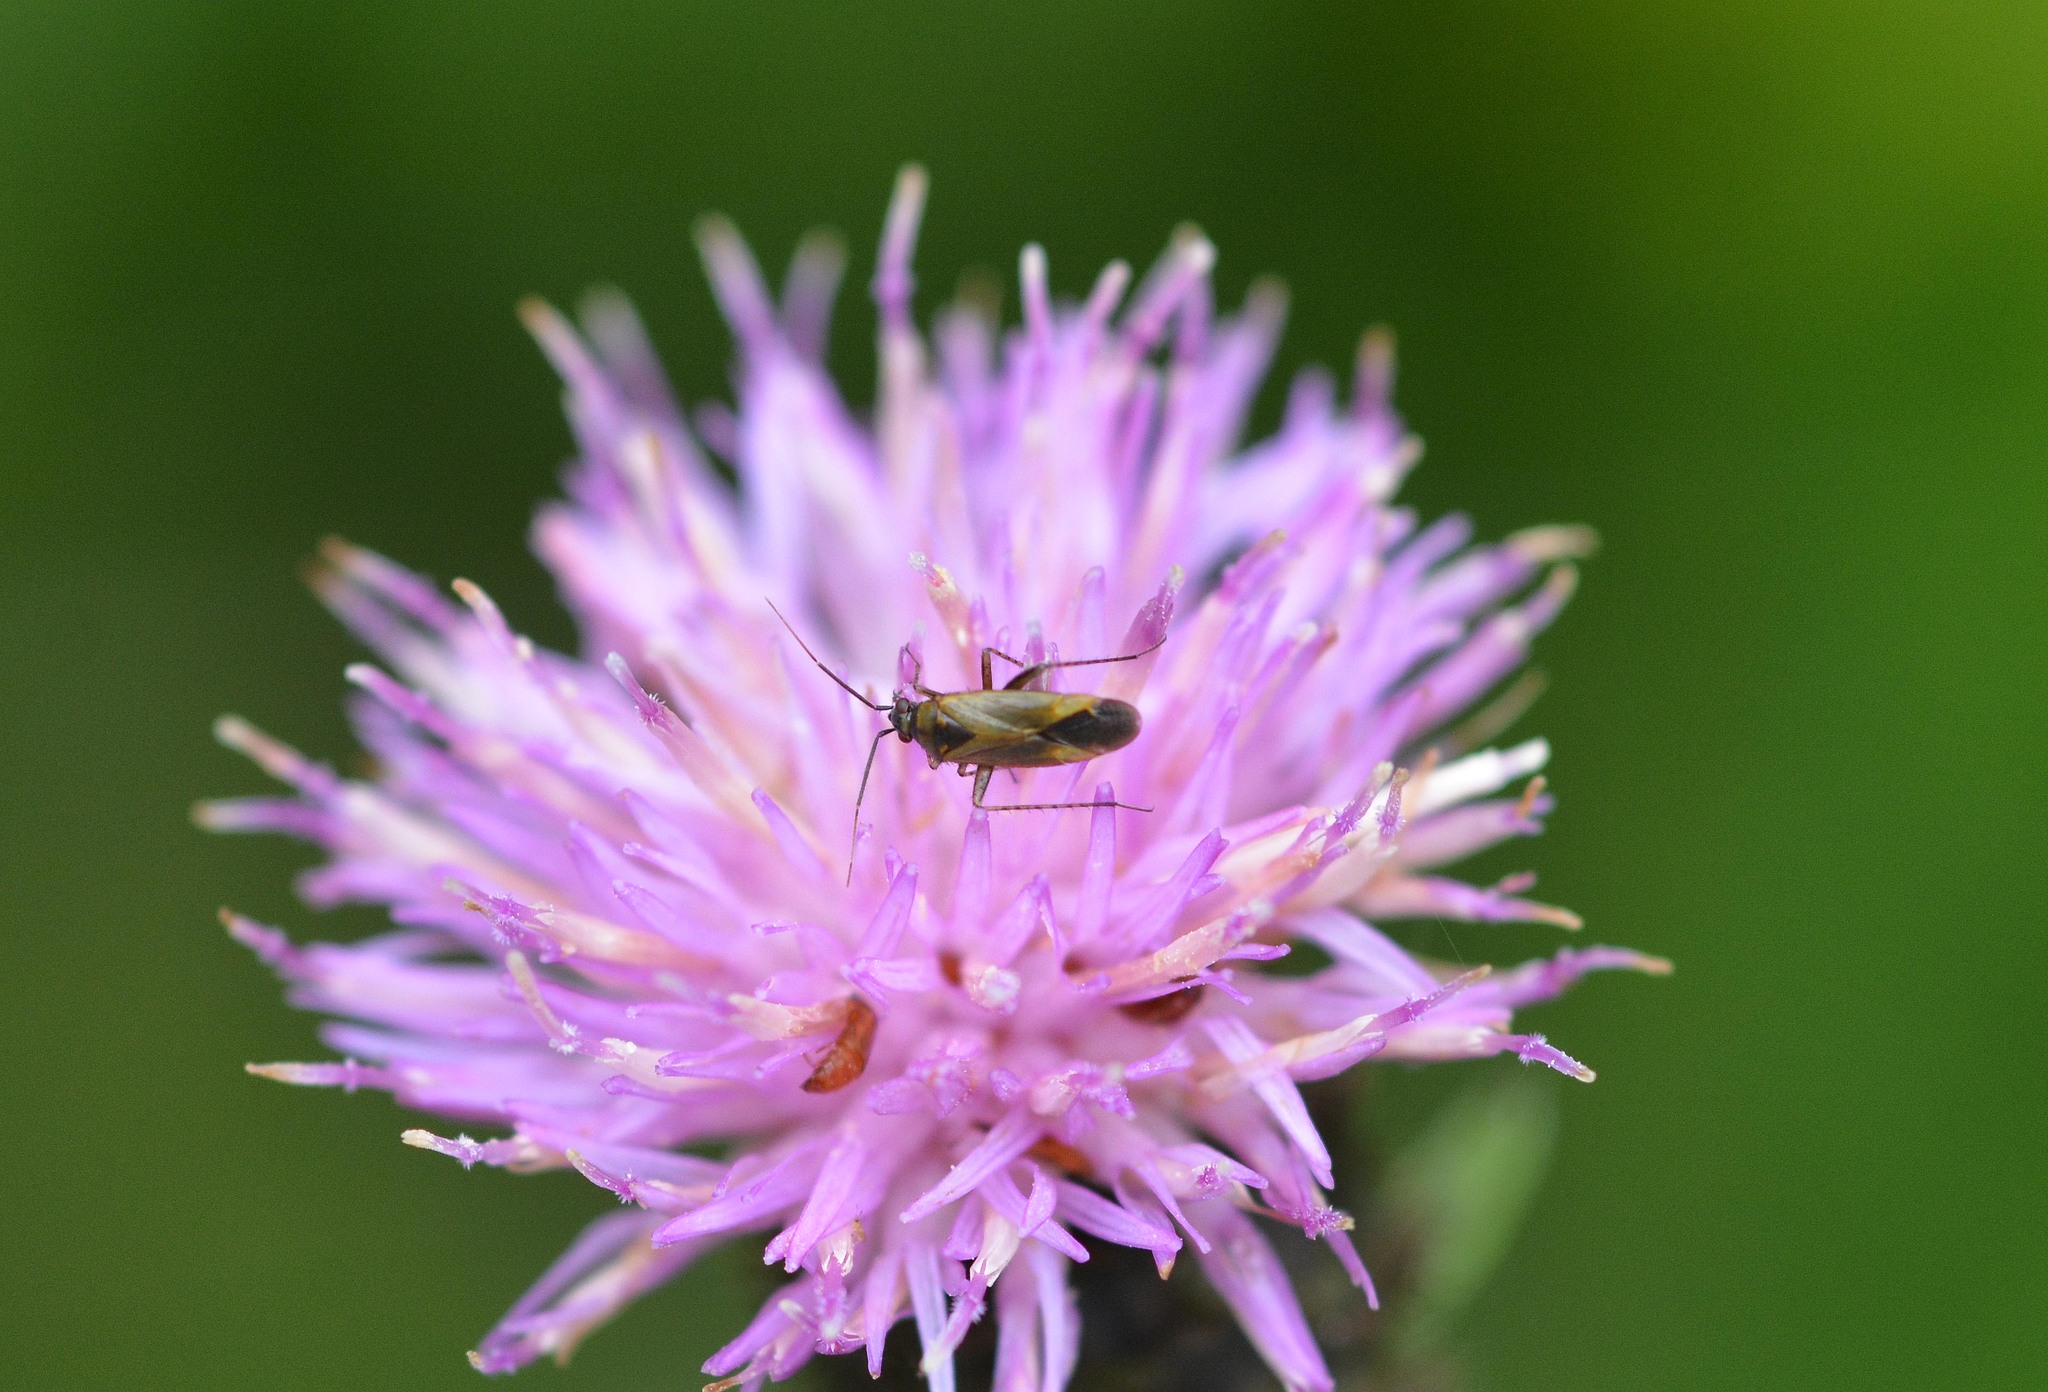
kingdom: Animalia
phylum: Arthropoda
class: Insecta
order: Hemiptera
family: Miridae
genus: Plagiognathus
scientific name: Plagiognathus arbustorum
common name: Plant bug
